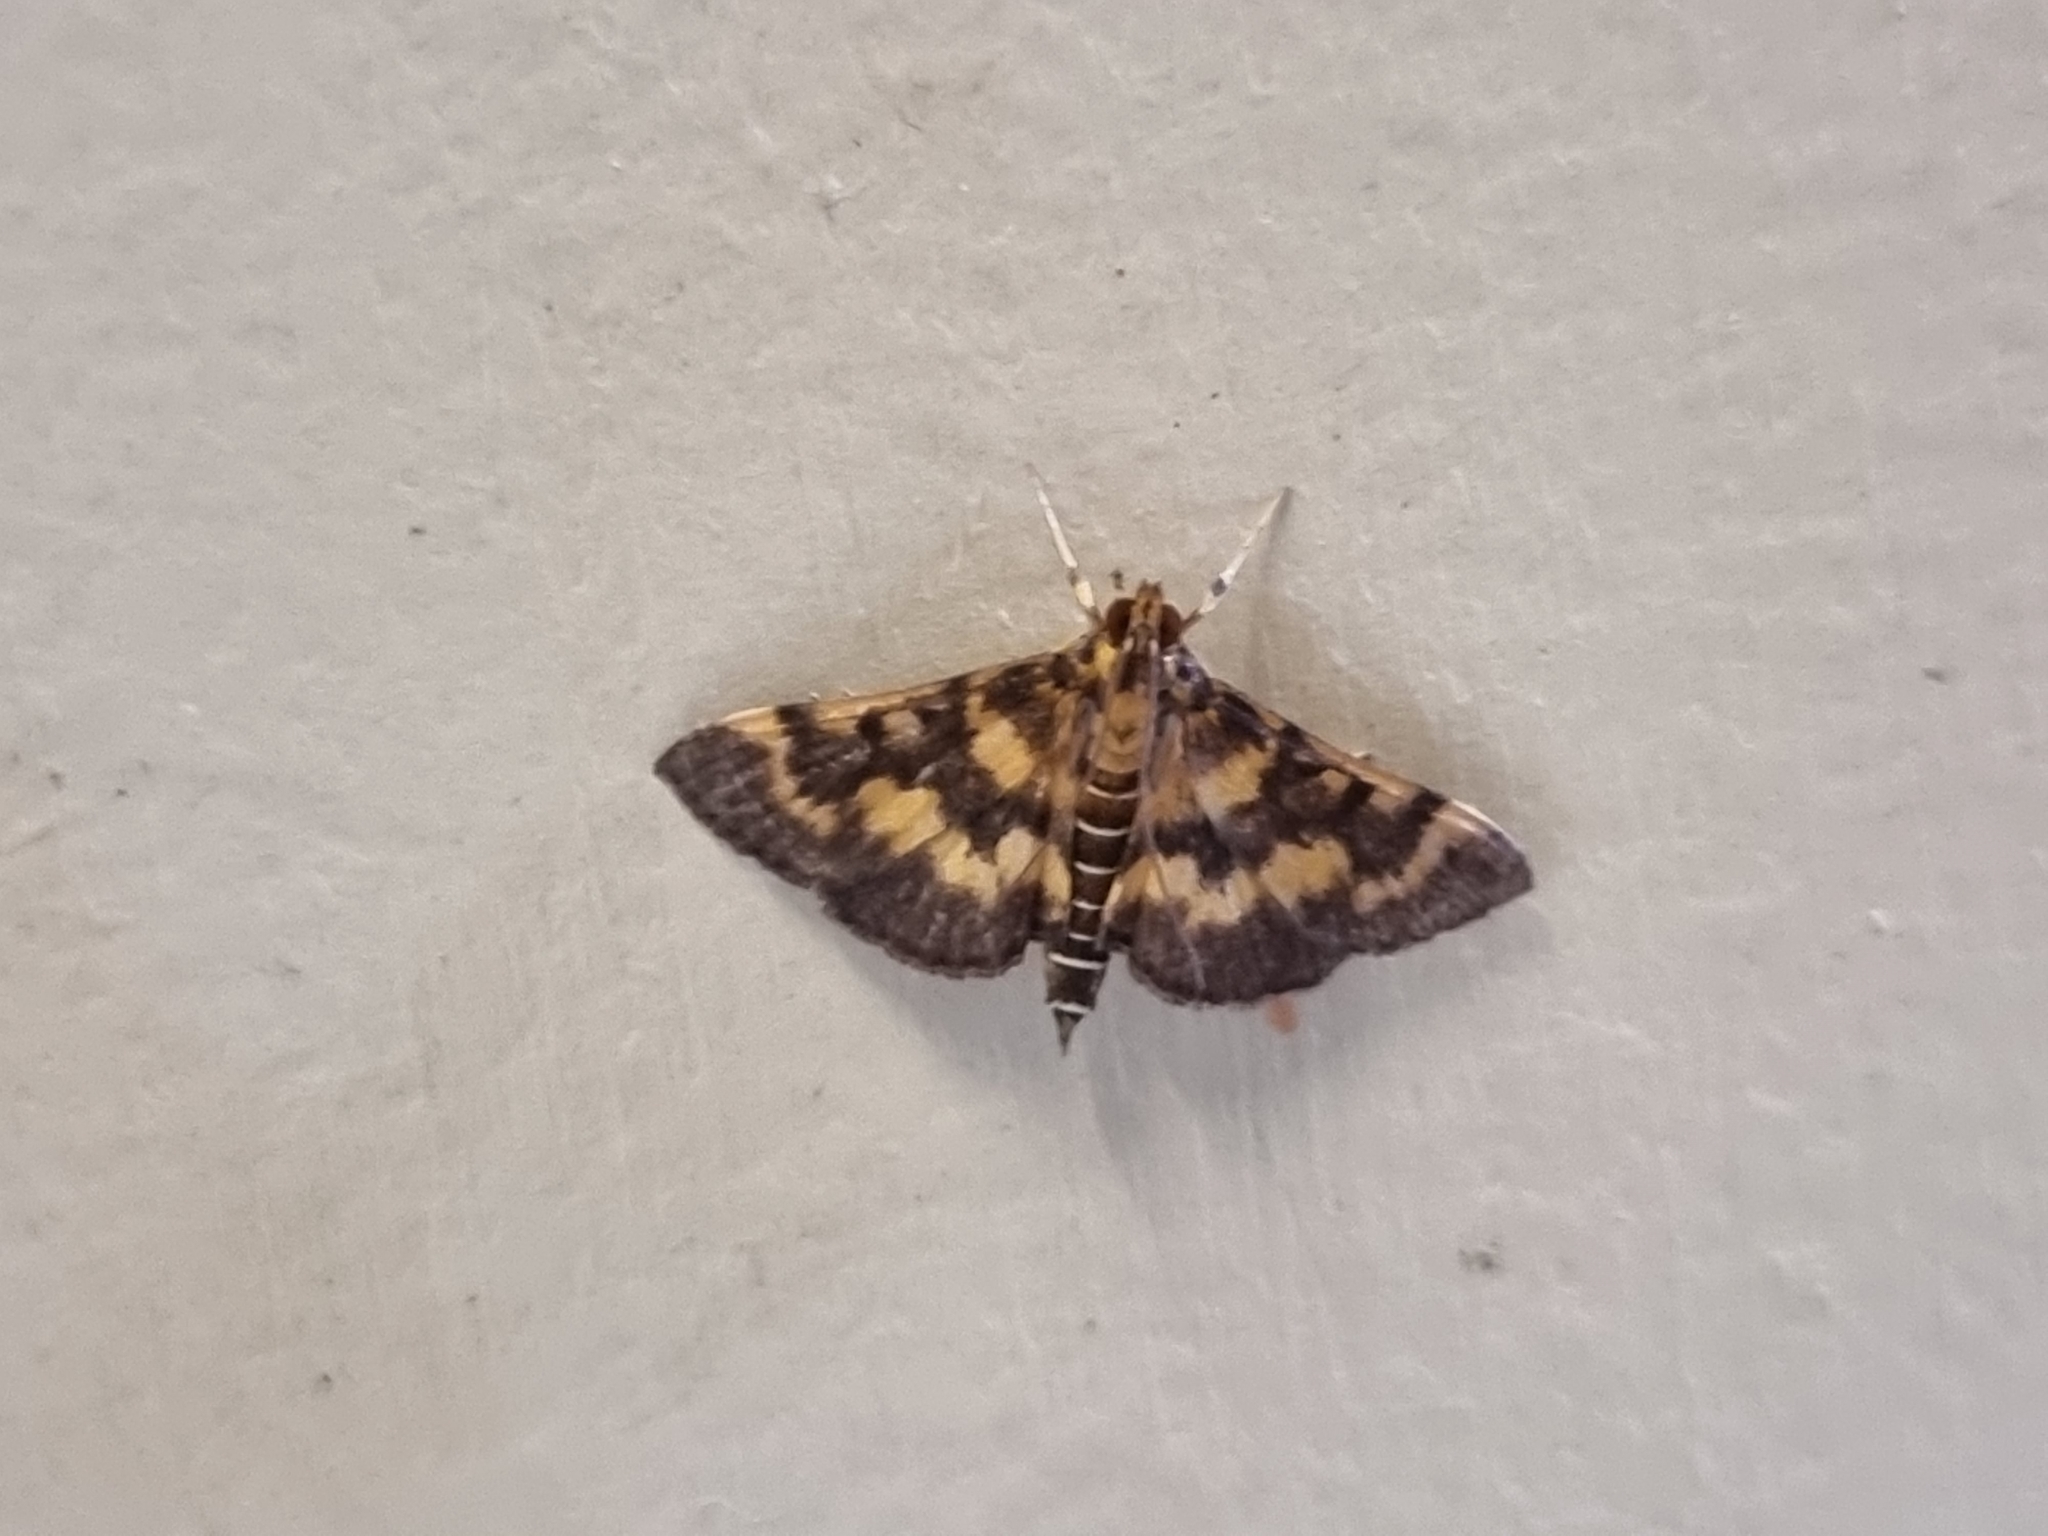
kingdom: Animalia
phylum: Arthropoda
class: Insecta
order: Lepidoptera
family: Crambidae
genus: Omiodes
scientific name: Omiodes diemenalis
